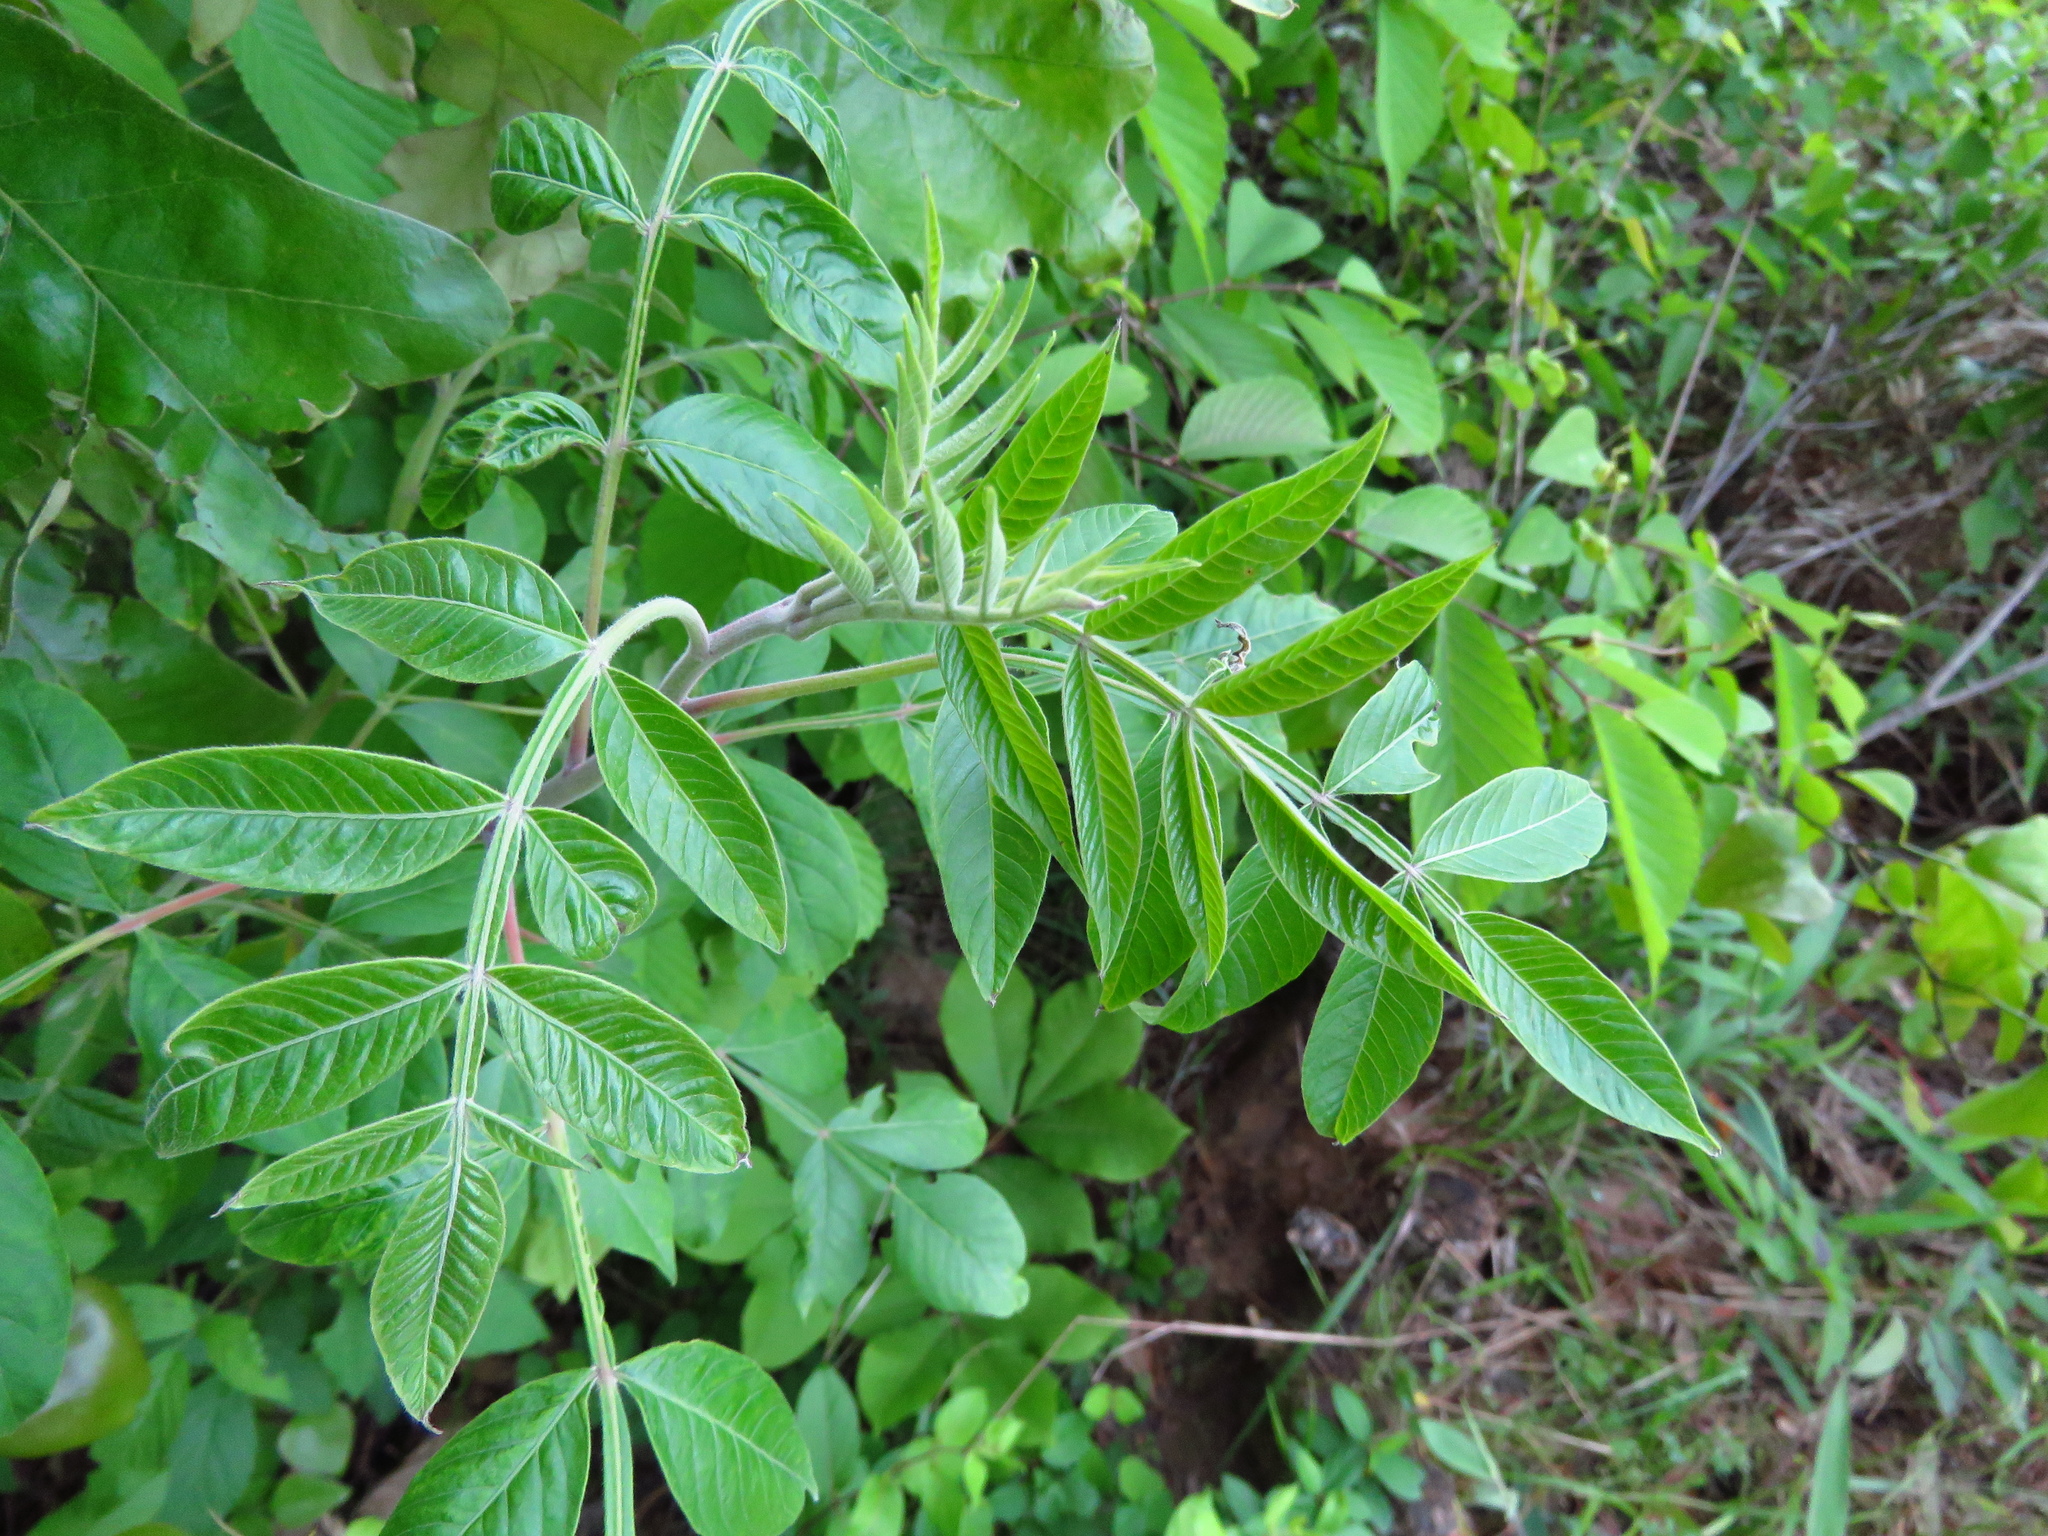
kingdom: Plantae
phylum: Tracheophyta
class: Magnoliopsida
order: Sapindales
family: Anacardiaceae
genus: Rhus
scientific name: Rhus copallina
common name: Shining sumac
